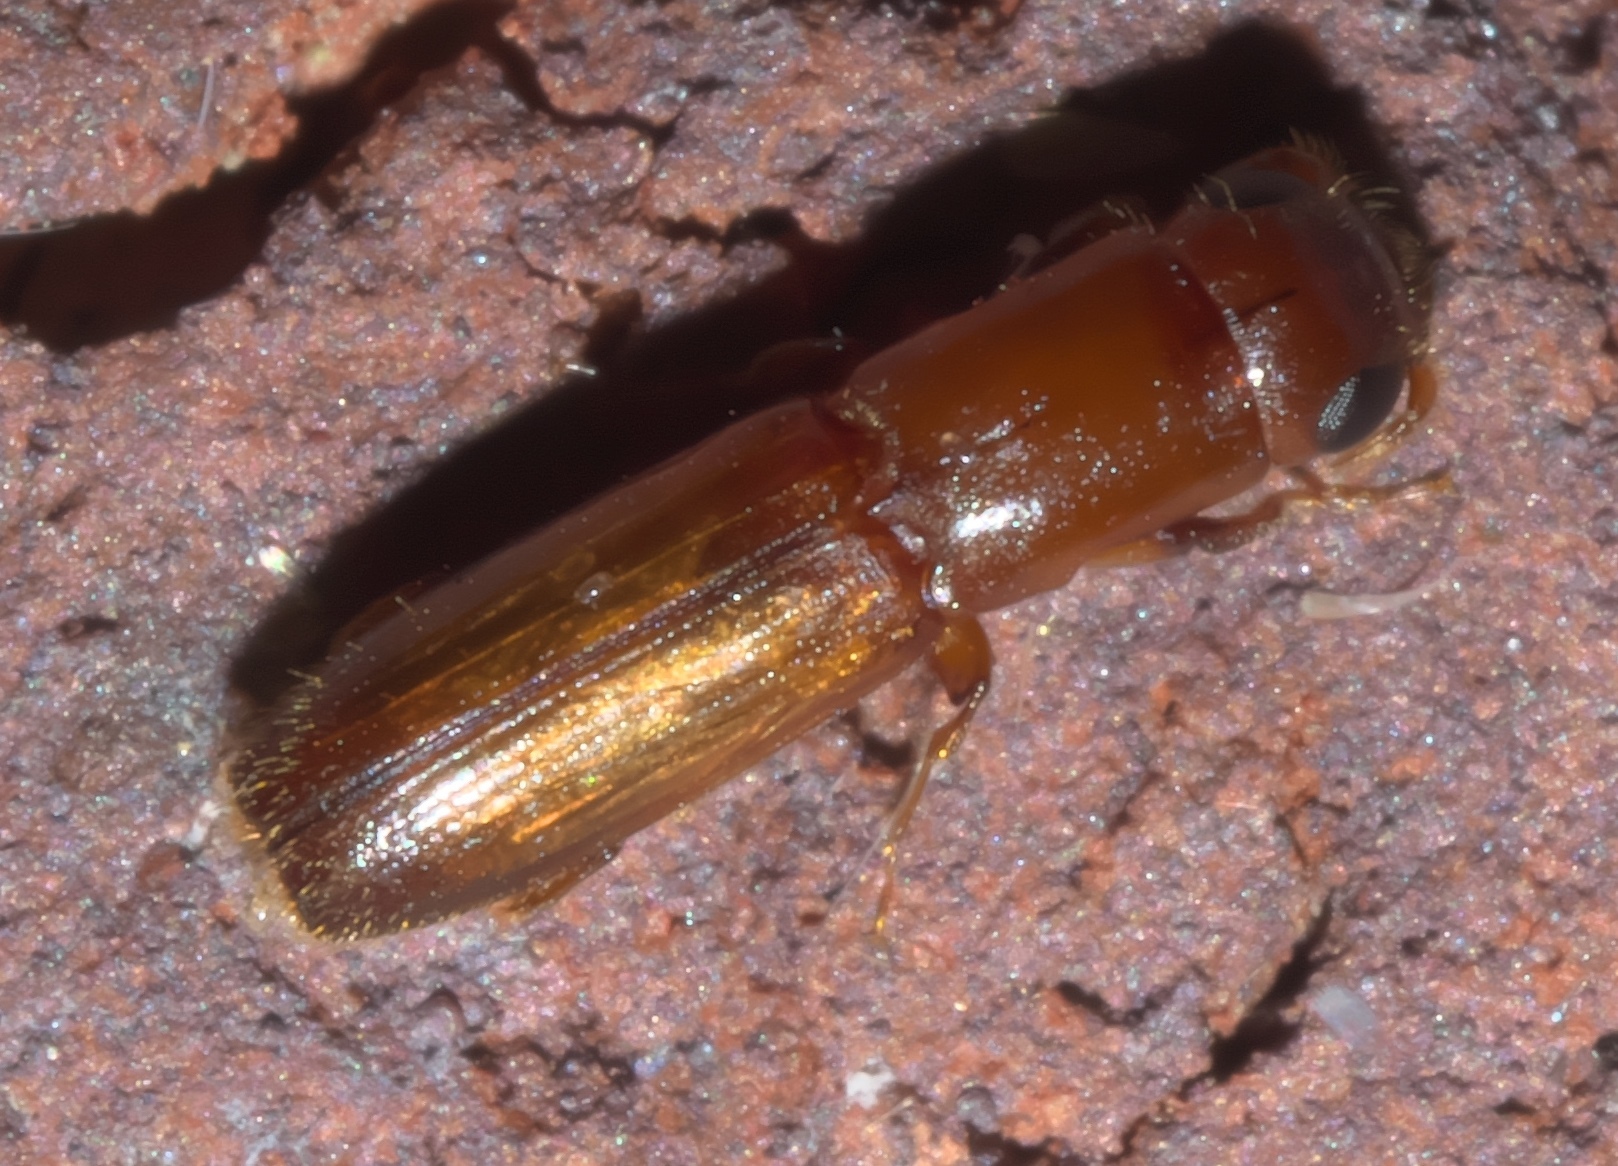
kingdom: Animalia
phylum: Arthropoda
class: Insecta
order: Coleoptera
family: Curculionidae
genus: Euplatypus
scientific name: Euplatypus compositus
